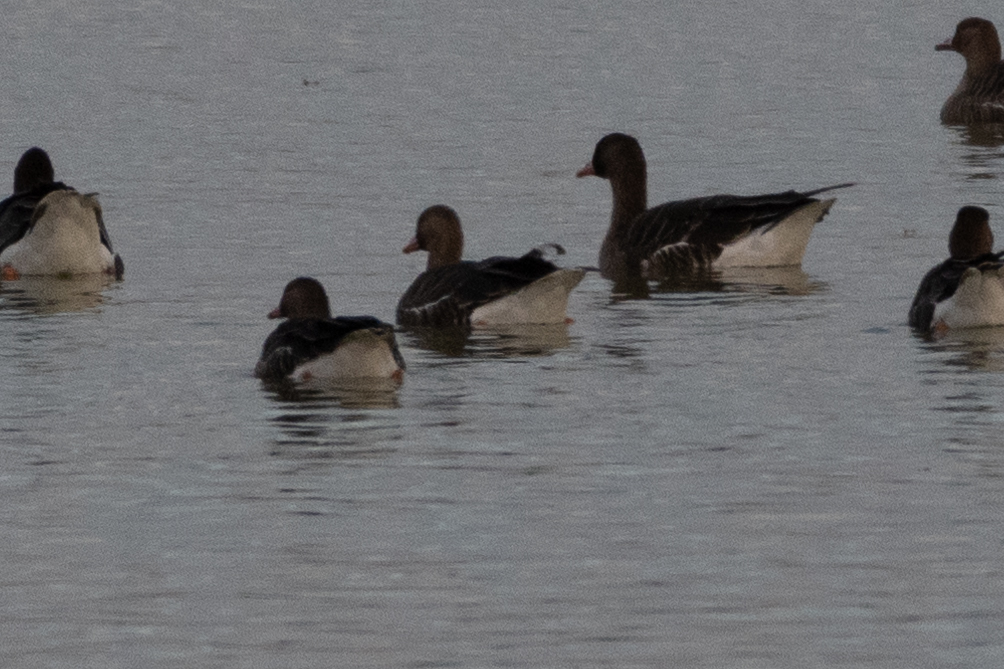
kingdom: Animalia
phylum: Chordata
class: Aves
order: Anseriformes
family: Anatidae
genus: Anser
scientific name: Anser albifrons
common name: Greater white-fronted goose
